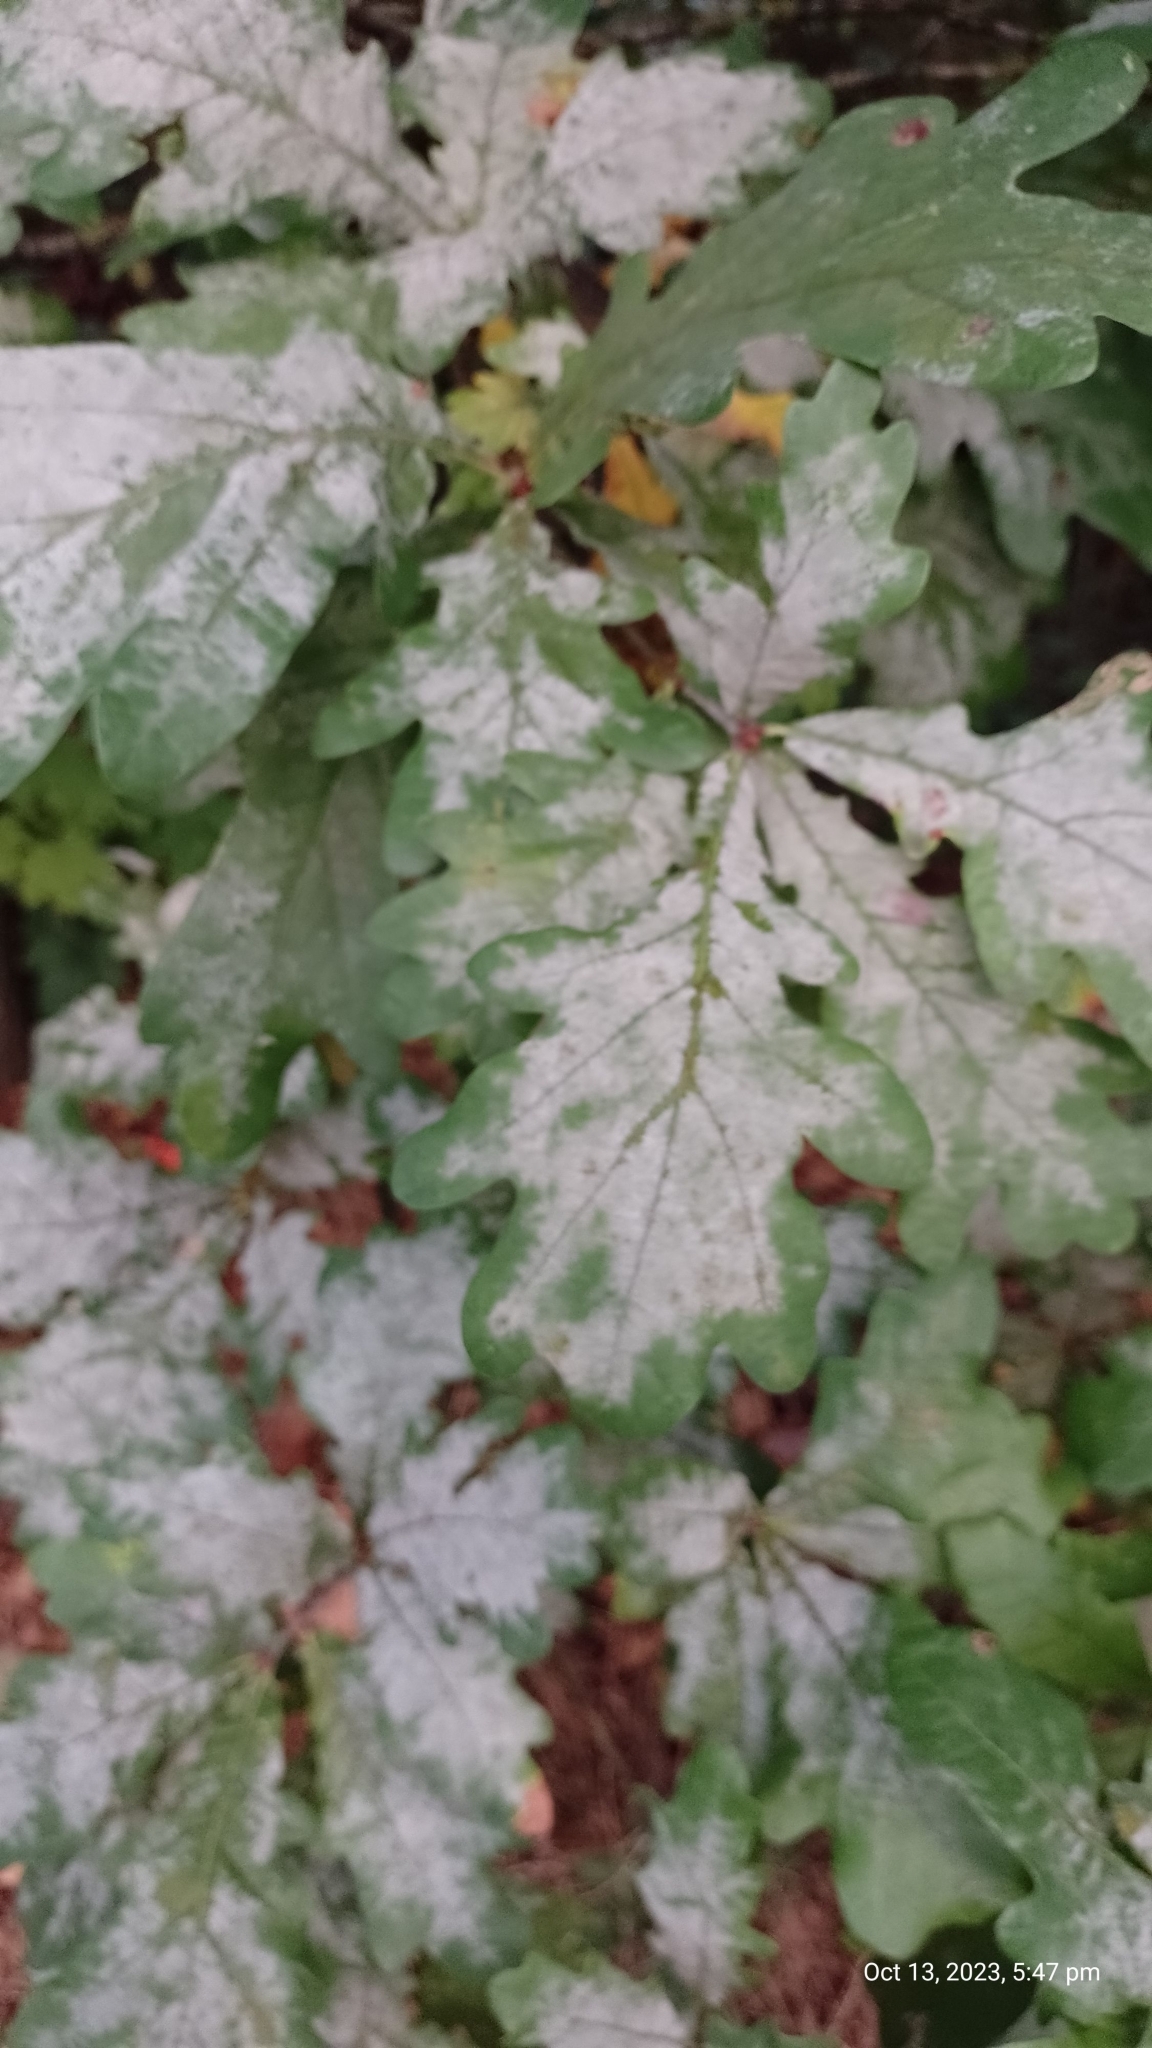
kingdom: Fungi
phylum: Ascomycota
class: Leotiomycetes
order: Helotiales
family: Erysiphaceae
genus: Erysiphe
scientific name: Erysiphe alphitoides
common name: Oak mildew
